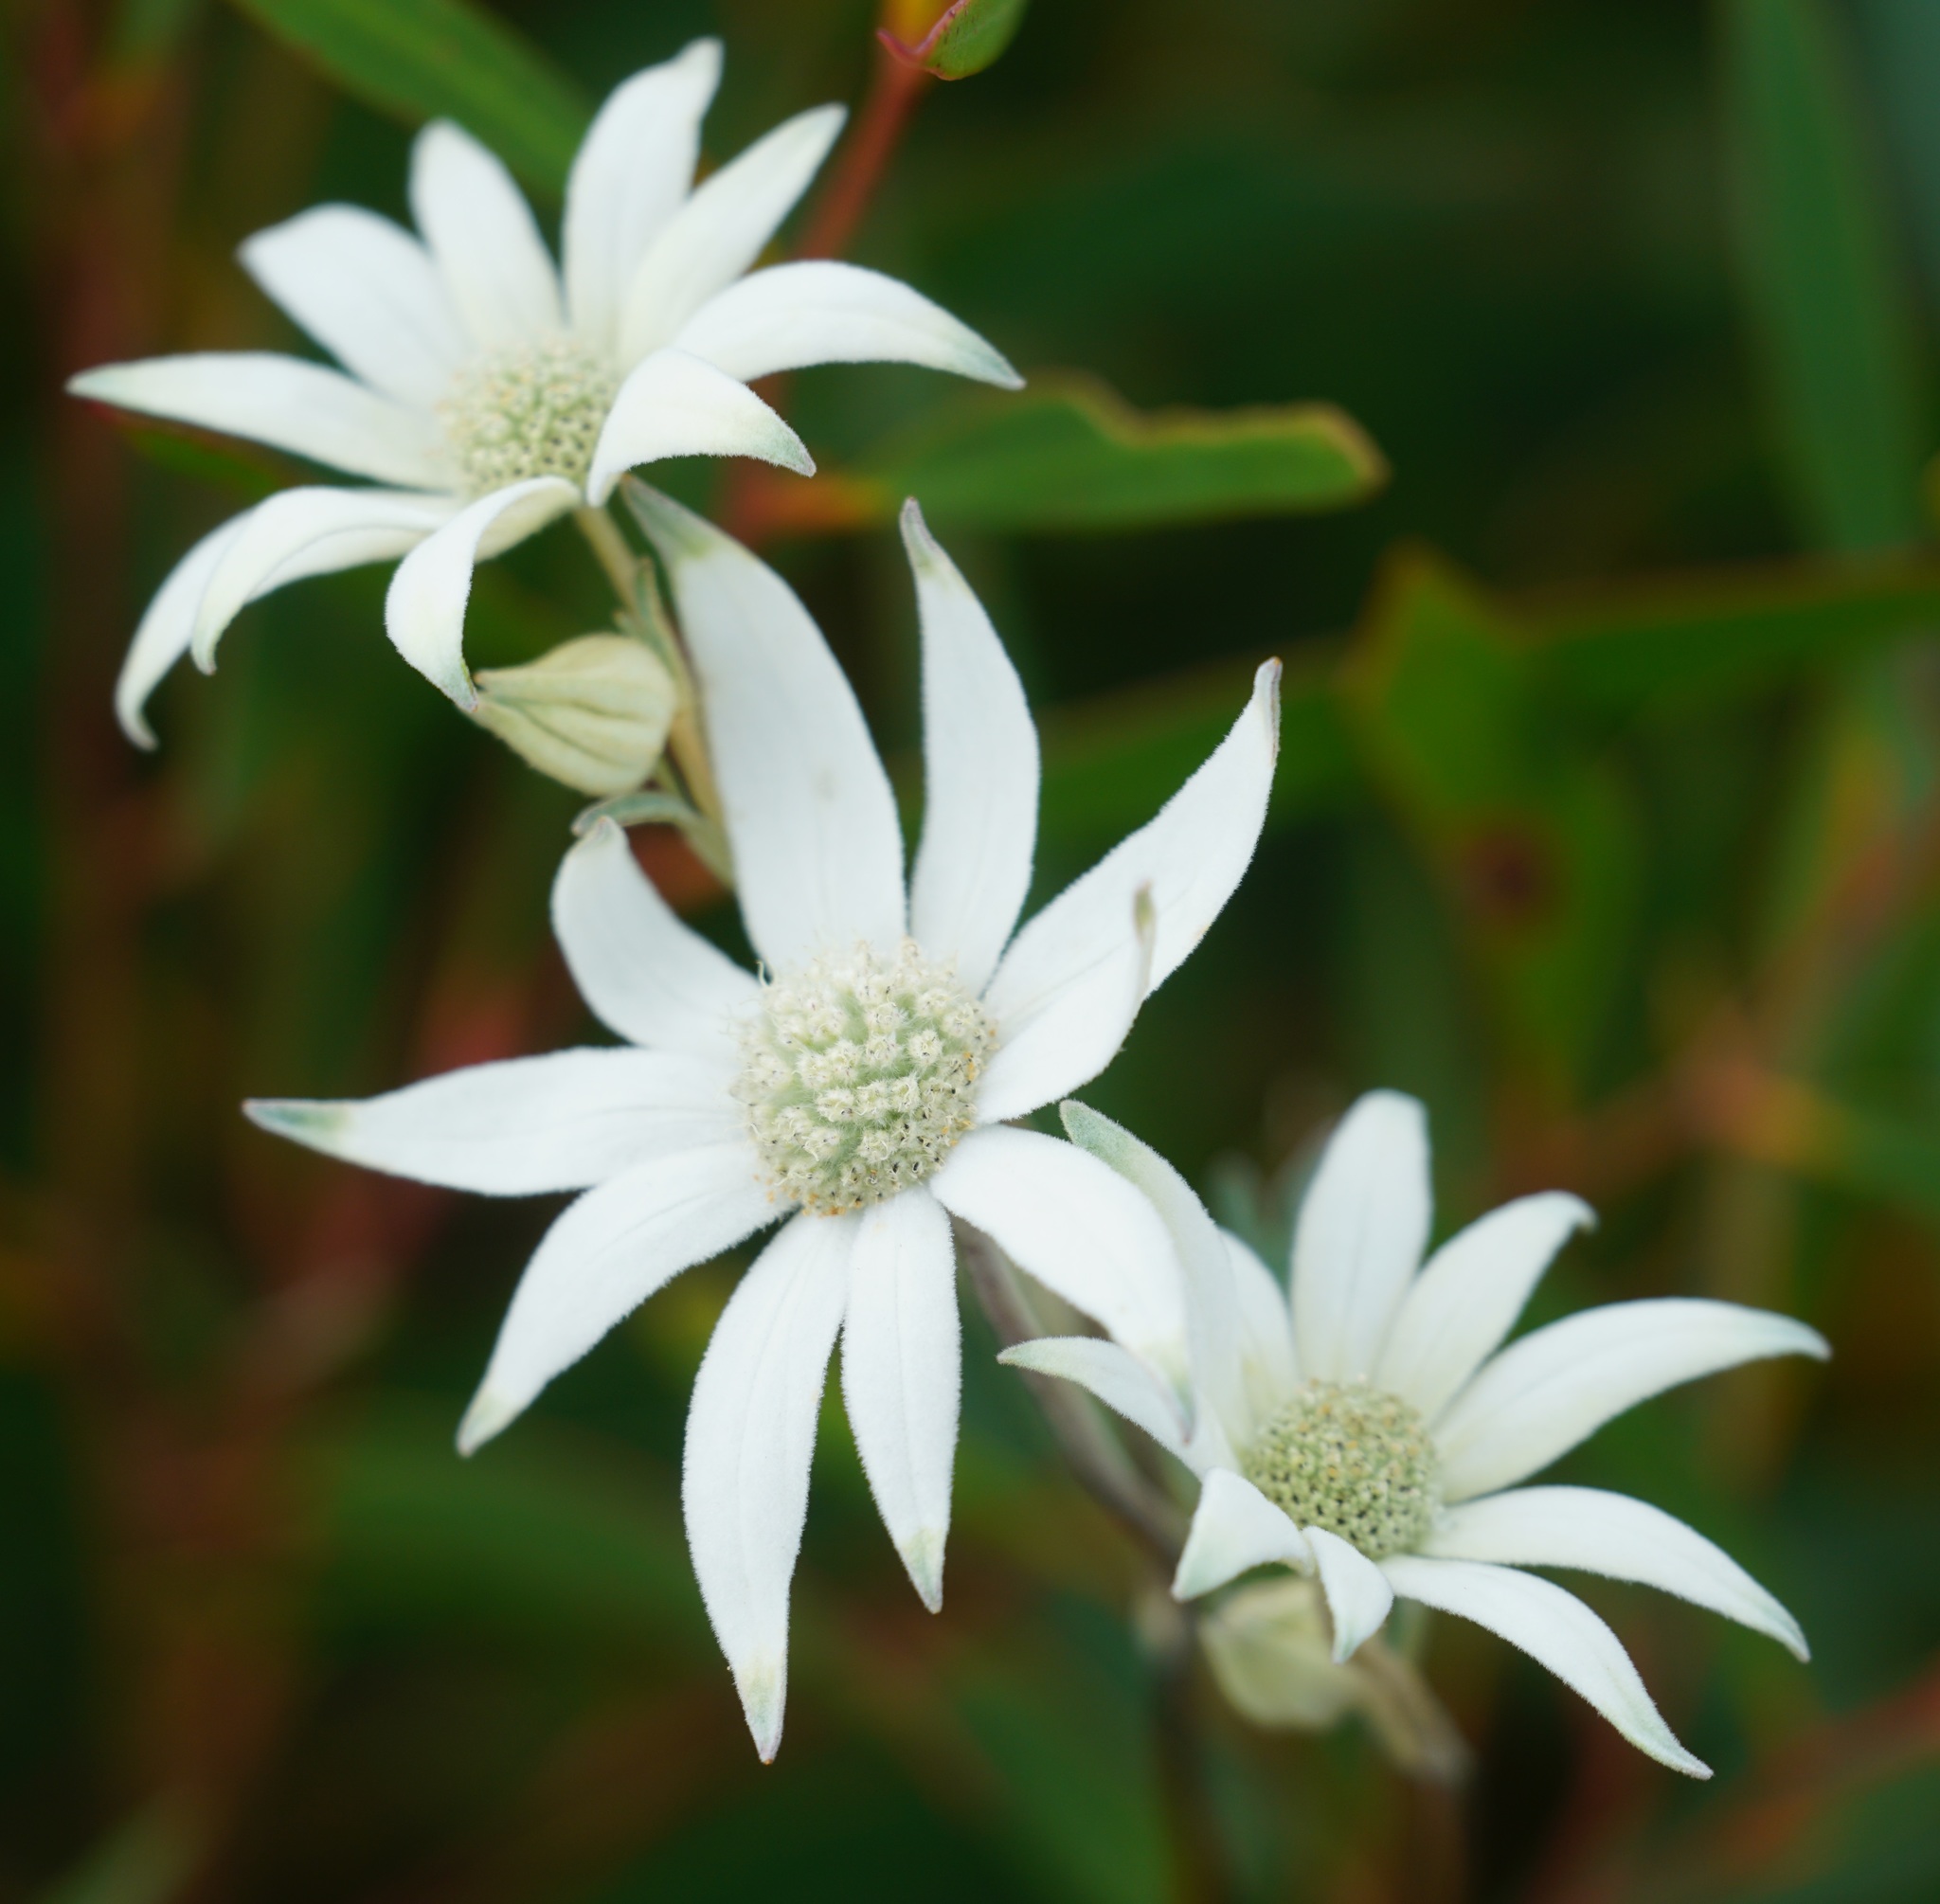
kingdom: Plantae
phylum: Tracheophyta
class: Magnoliopsida
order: Apiales
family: Apiaceae
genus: Actinotus
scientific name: Actinotus helianthi
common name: Flannel-flower
